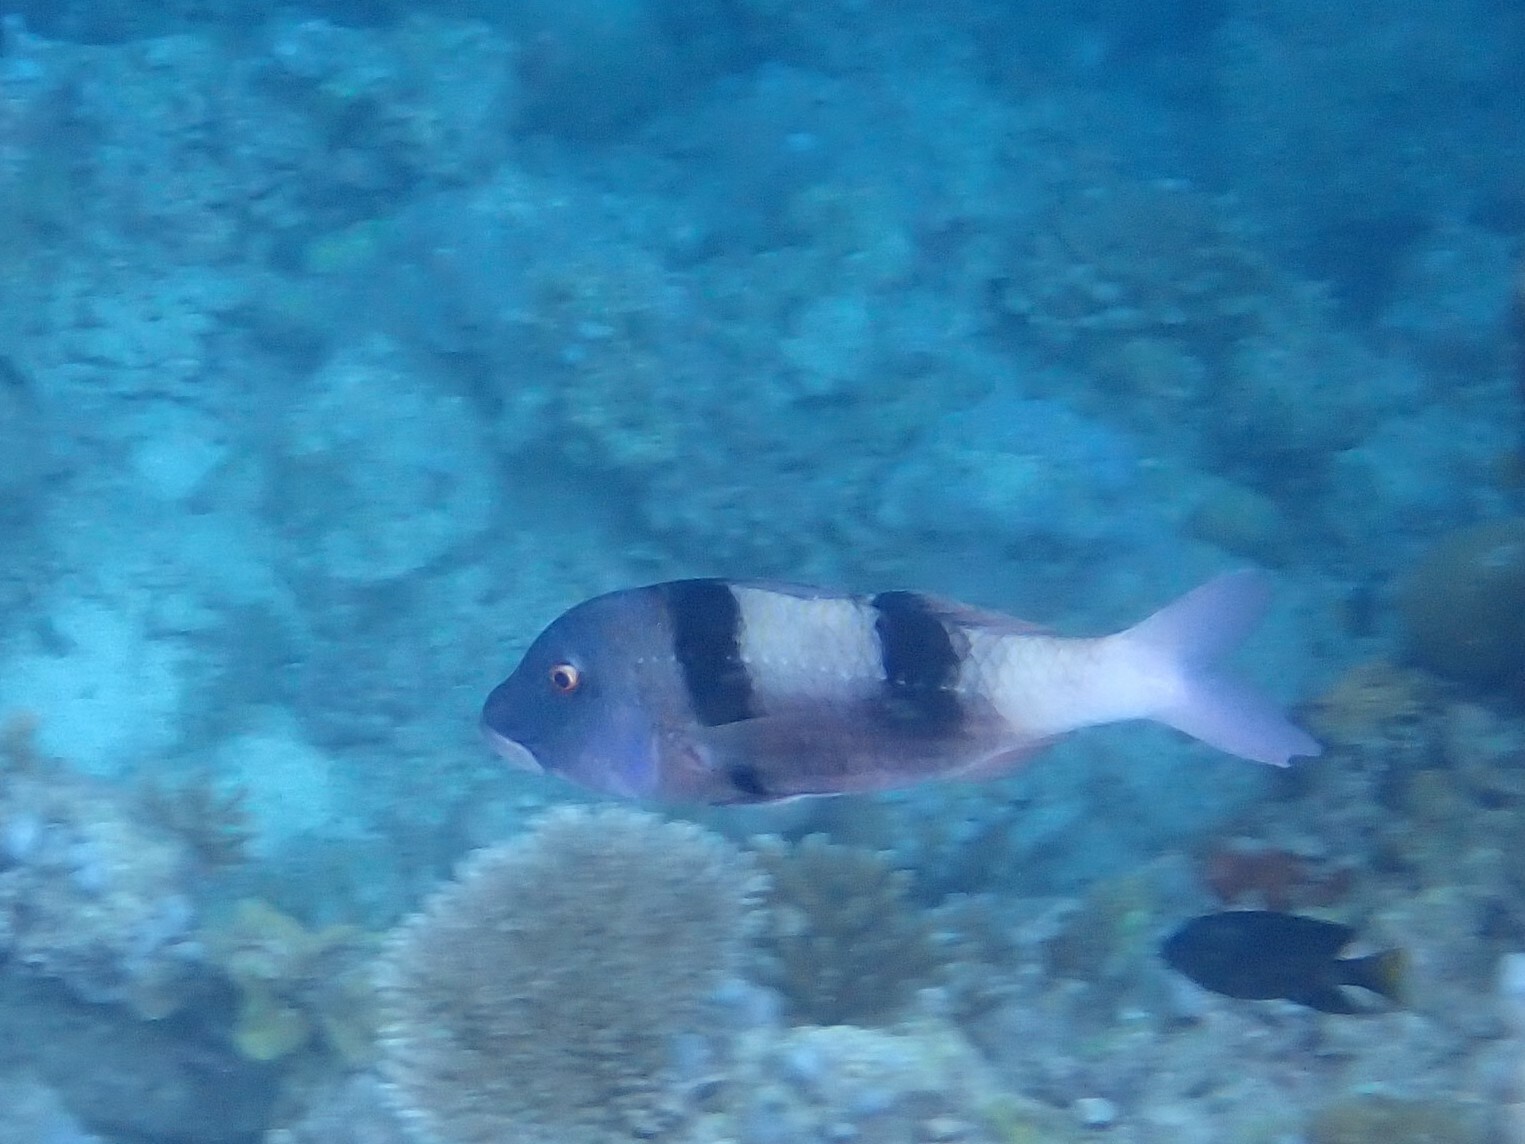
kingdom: Animalia
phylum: Chordata
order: Perciformes
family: Mullidae
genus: Parupeneus
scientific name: Parupeneus trifasciatus
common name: Doublebar goatfish
